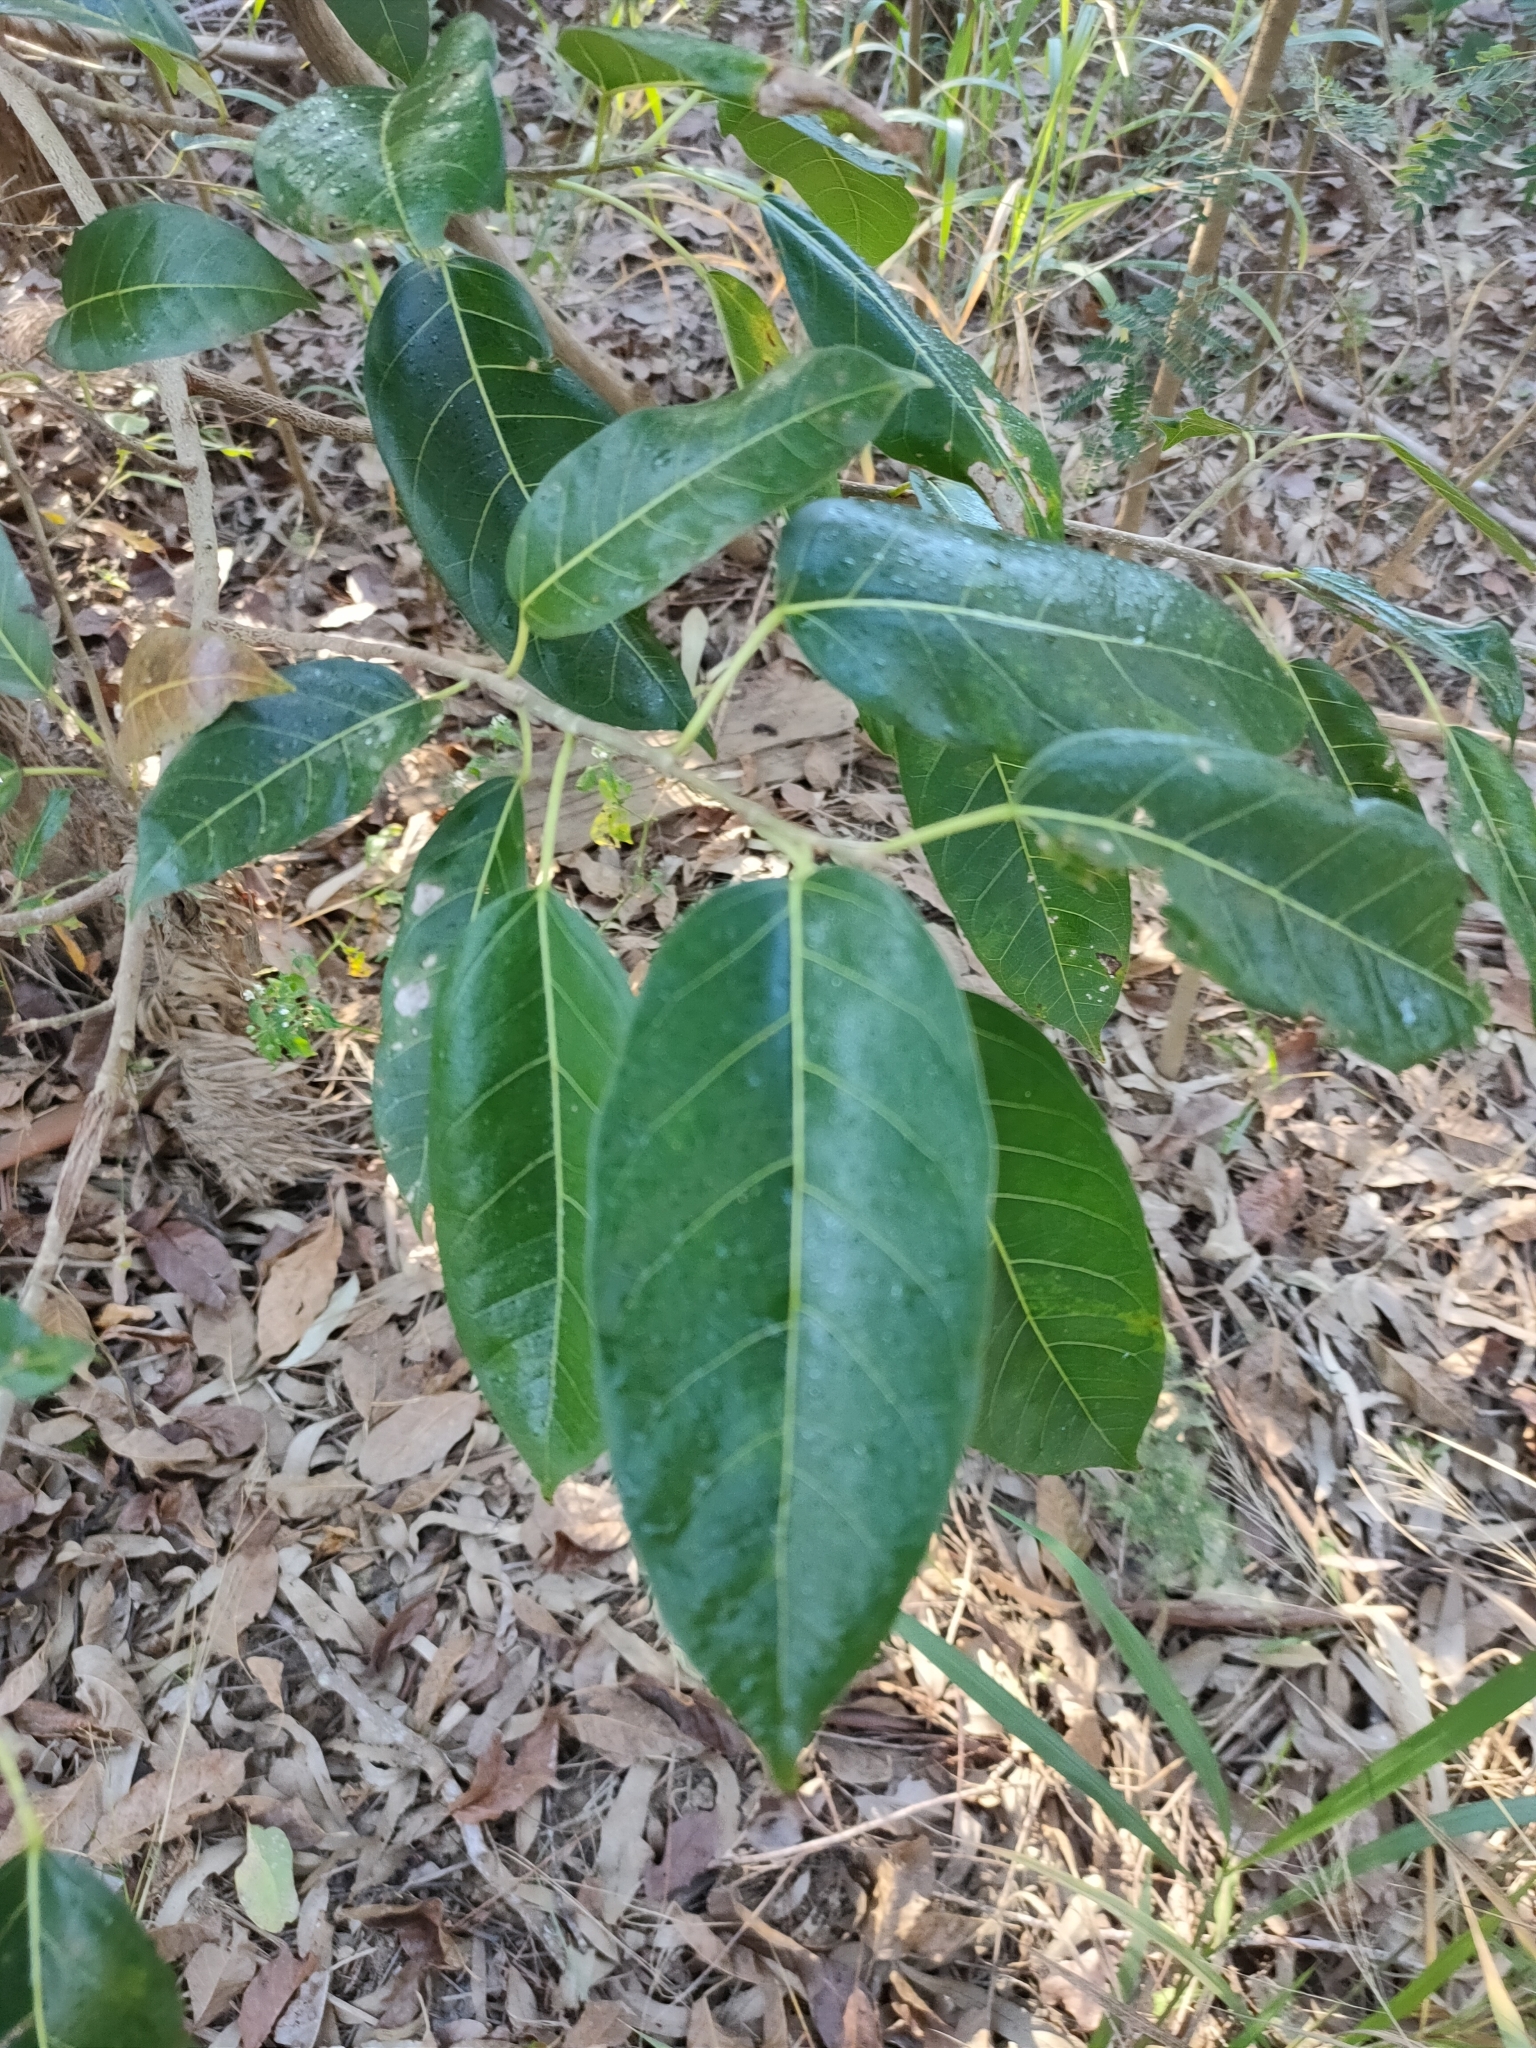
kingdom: Plantae
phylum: Tracheophyta
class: Magnoliopsida
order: Rosales
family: Moraceae
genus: Ficus
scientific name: Ficus virens
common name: Spotted fig
